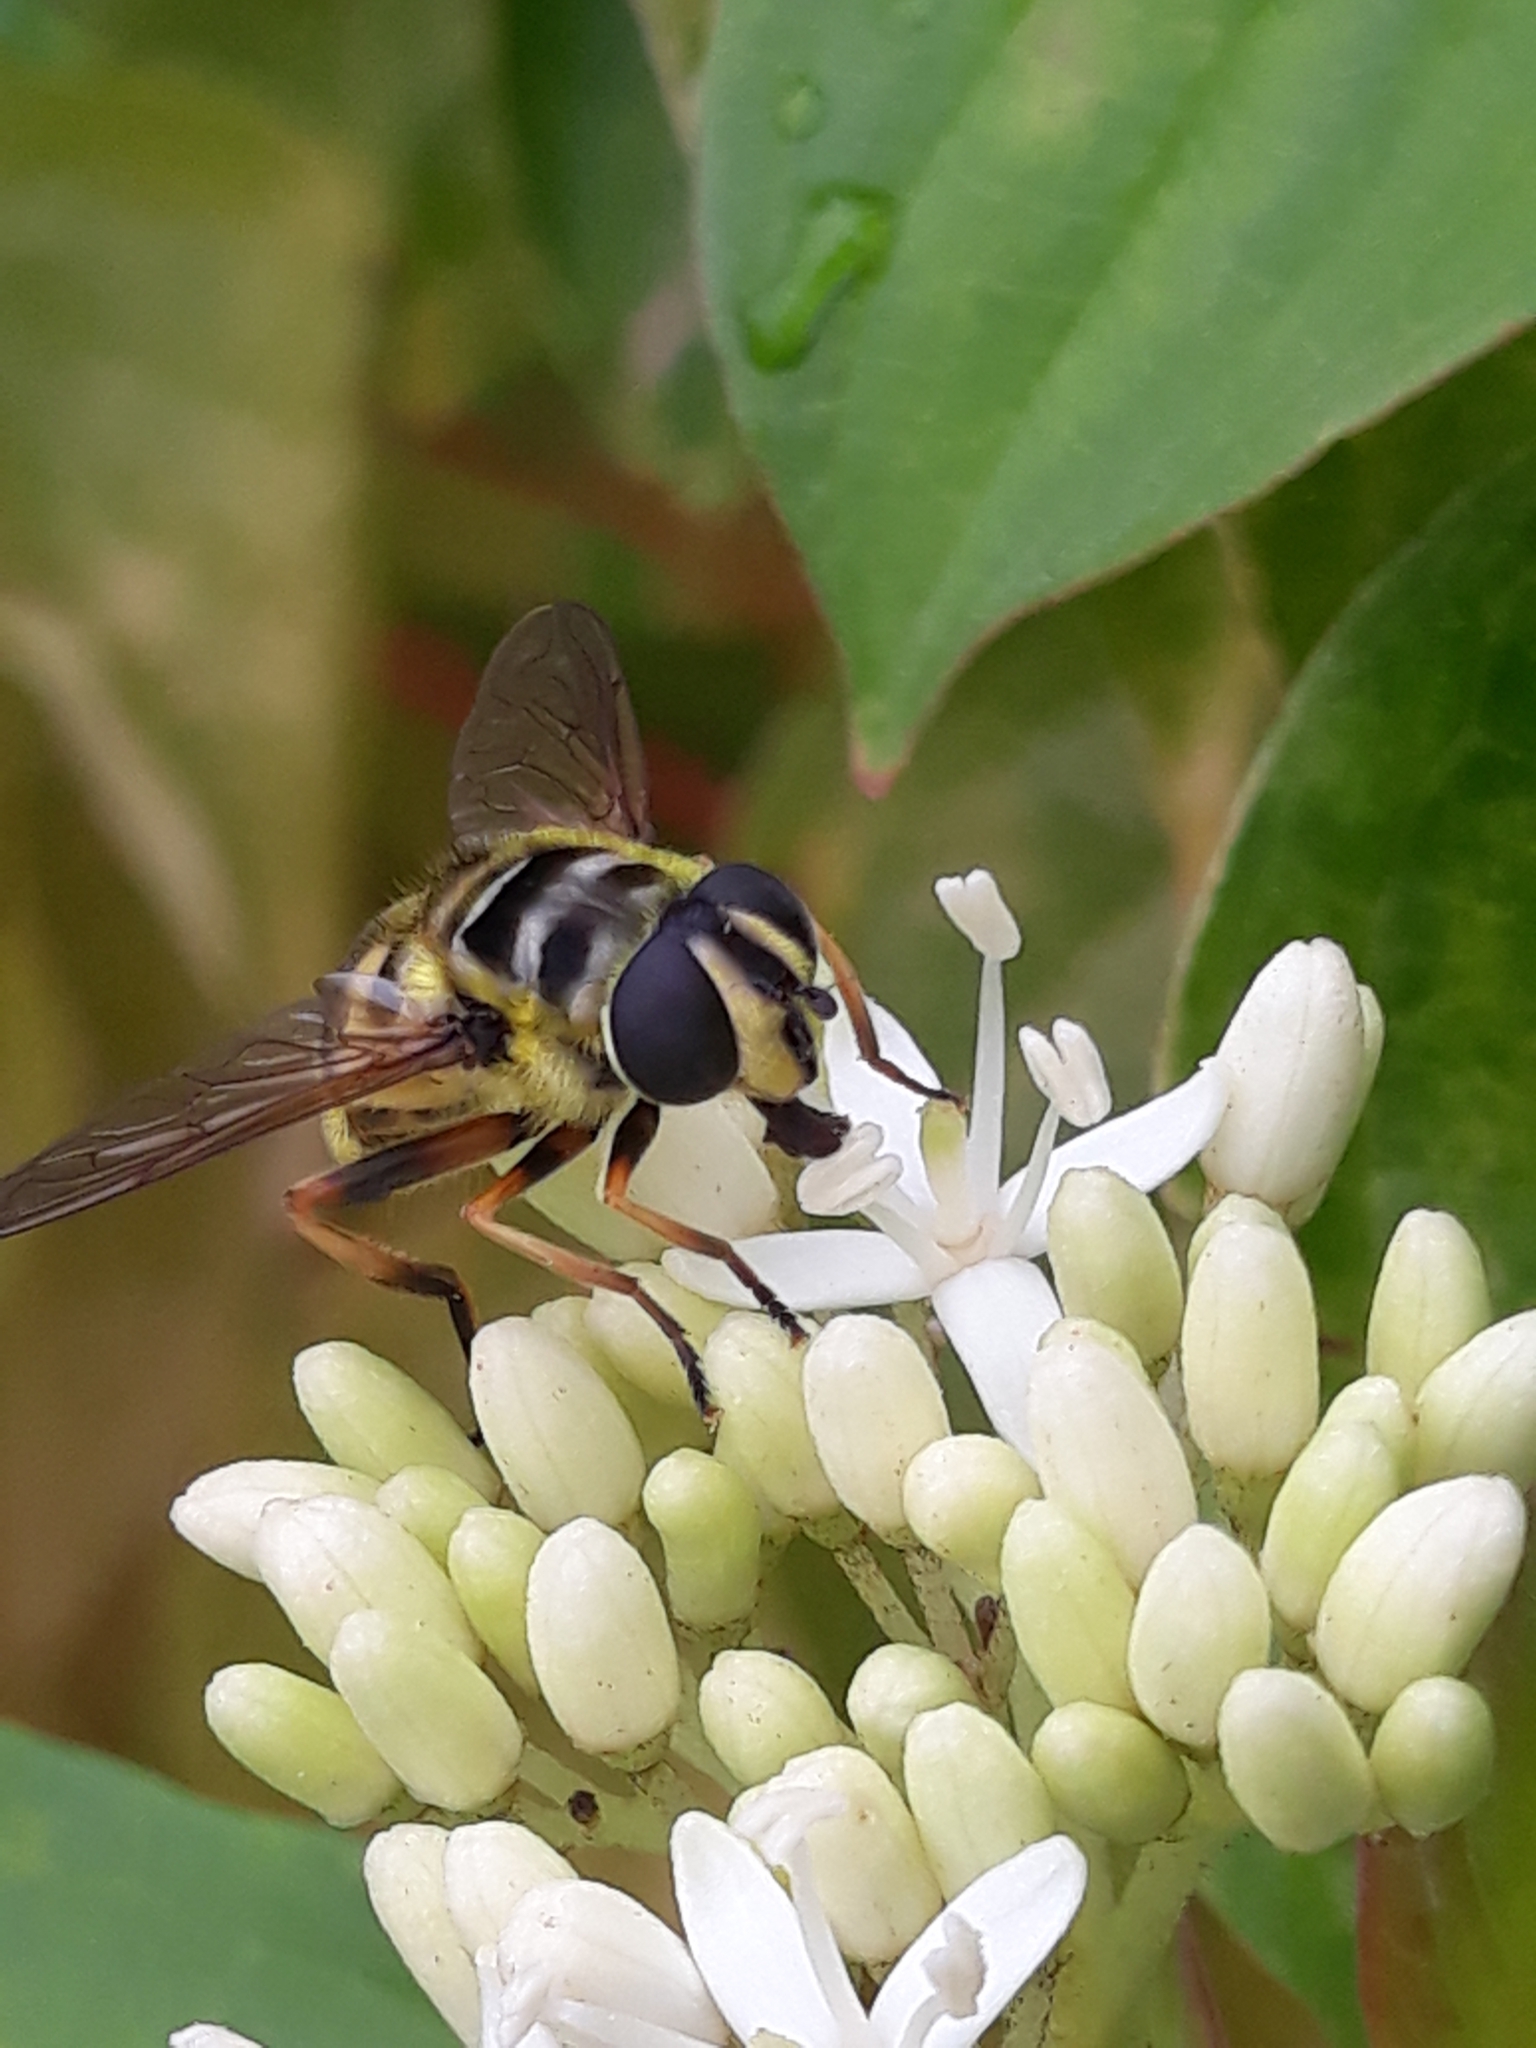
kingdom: Animalia
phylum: Arthropoda
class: Insecta
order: Diptera
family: Syrphidae
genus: Myathropa
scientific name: Myathropa florea
